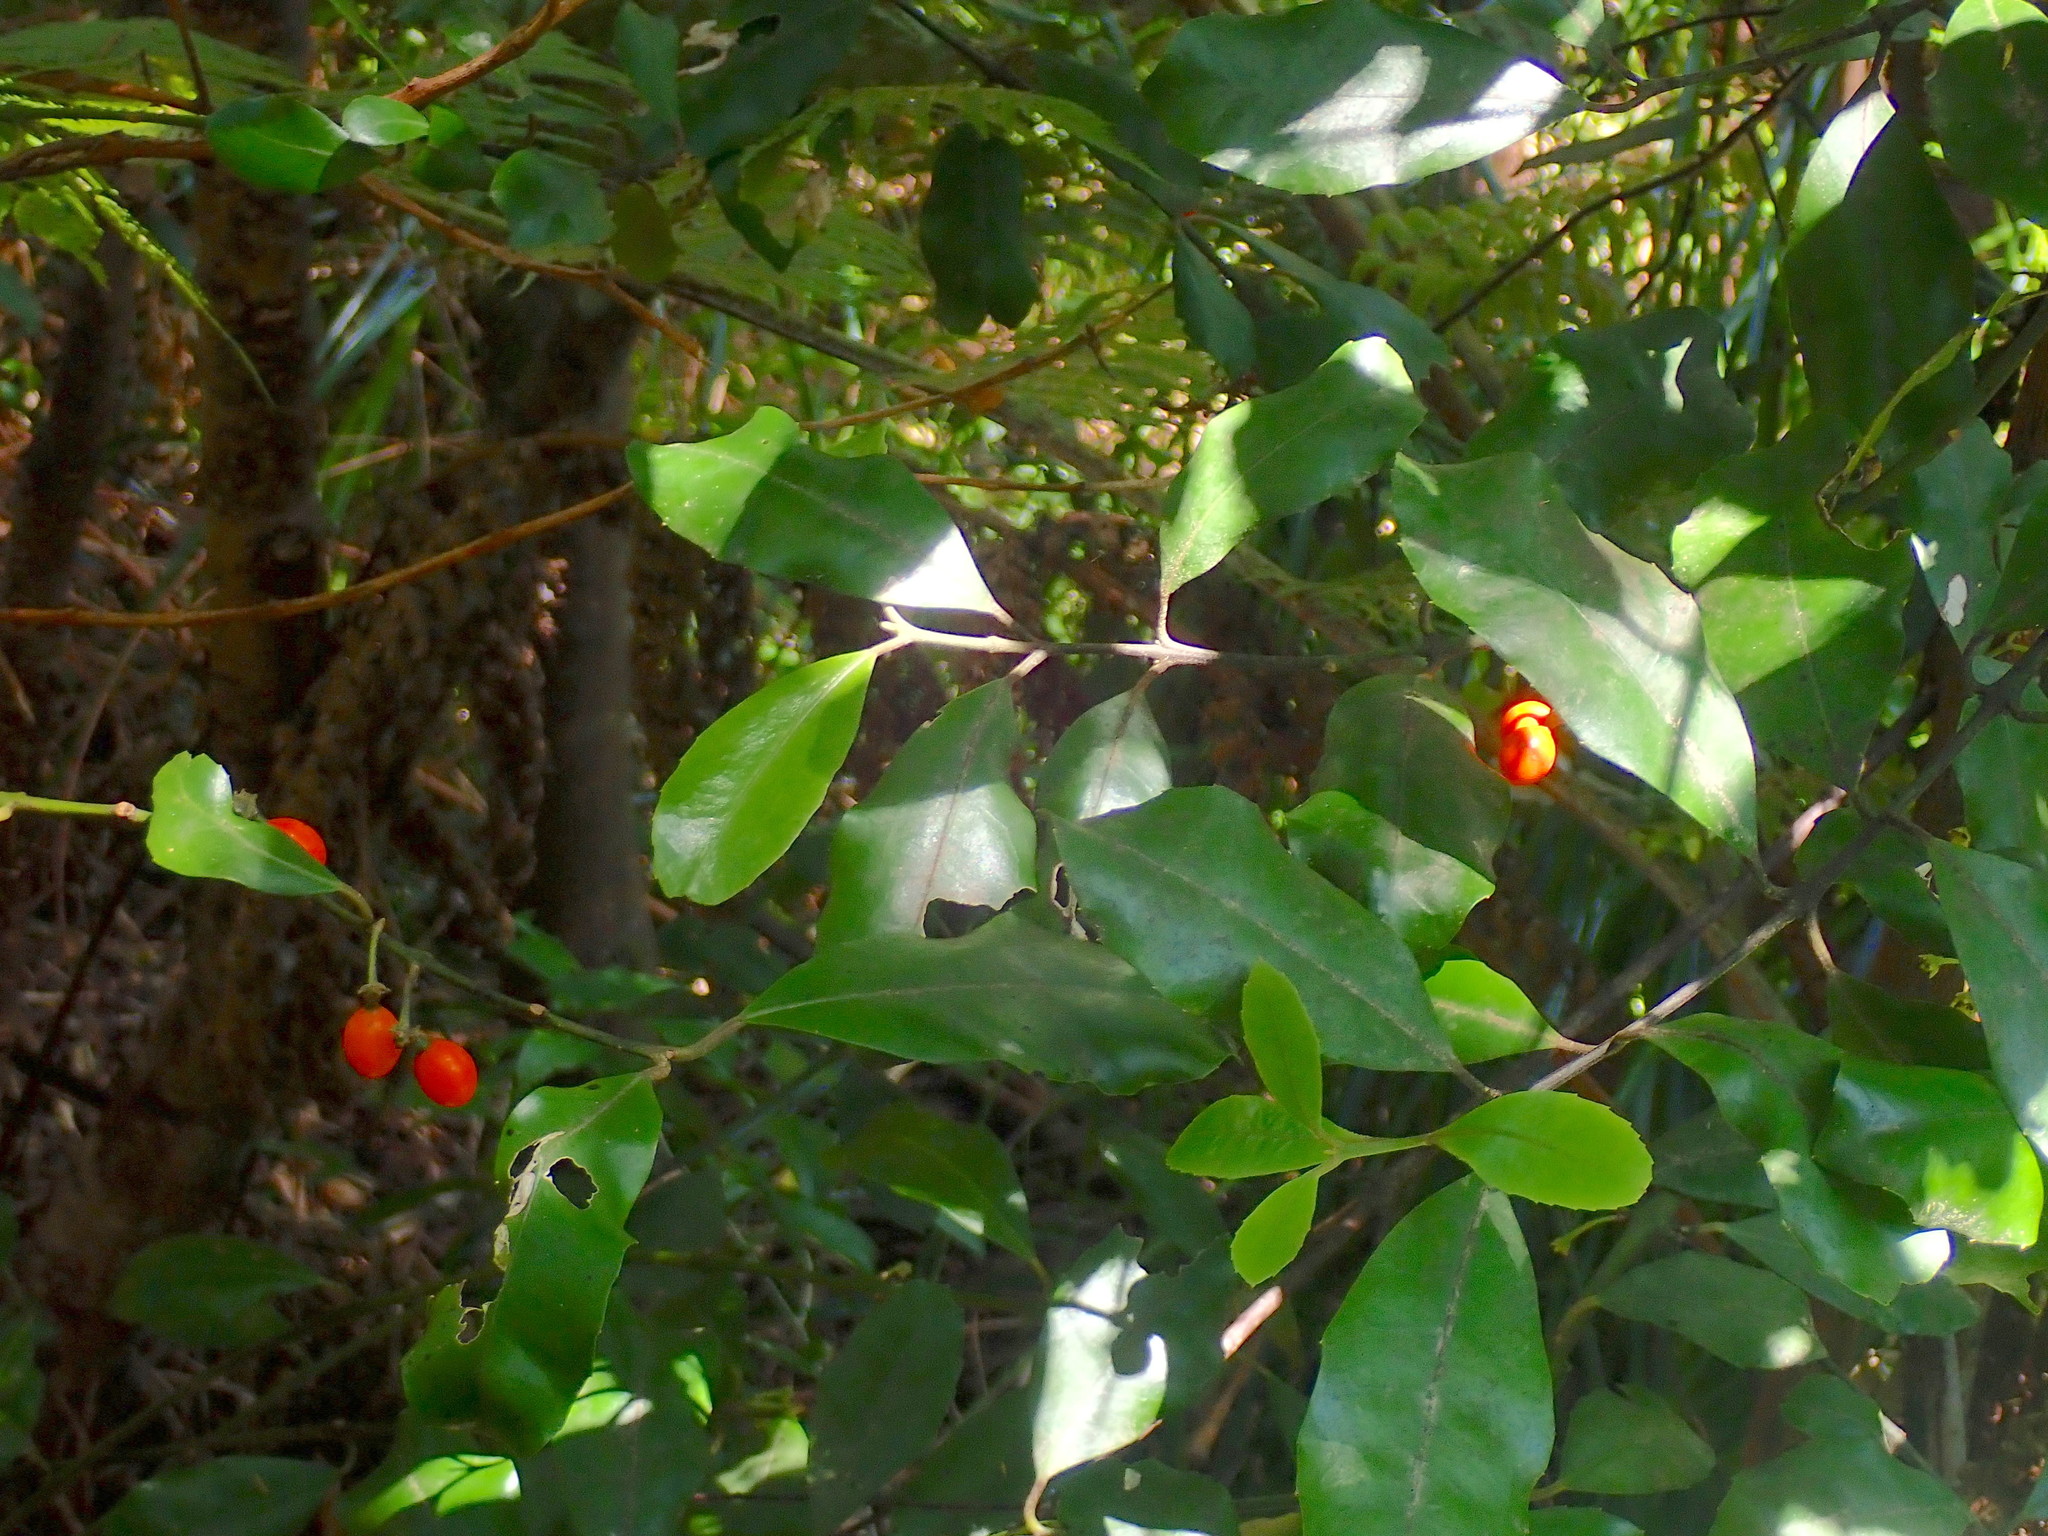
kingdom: Plantae
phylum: Tracheophyta
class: Magnoliopsida
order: Laurales
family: Monimiaceae
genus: Hedycarya
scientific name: Hedycarya arborea
